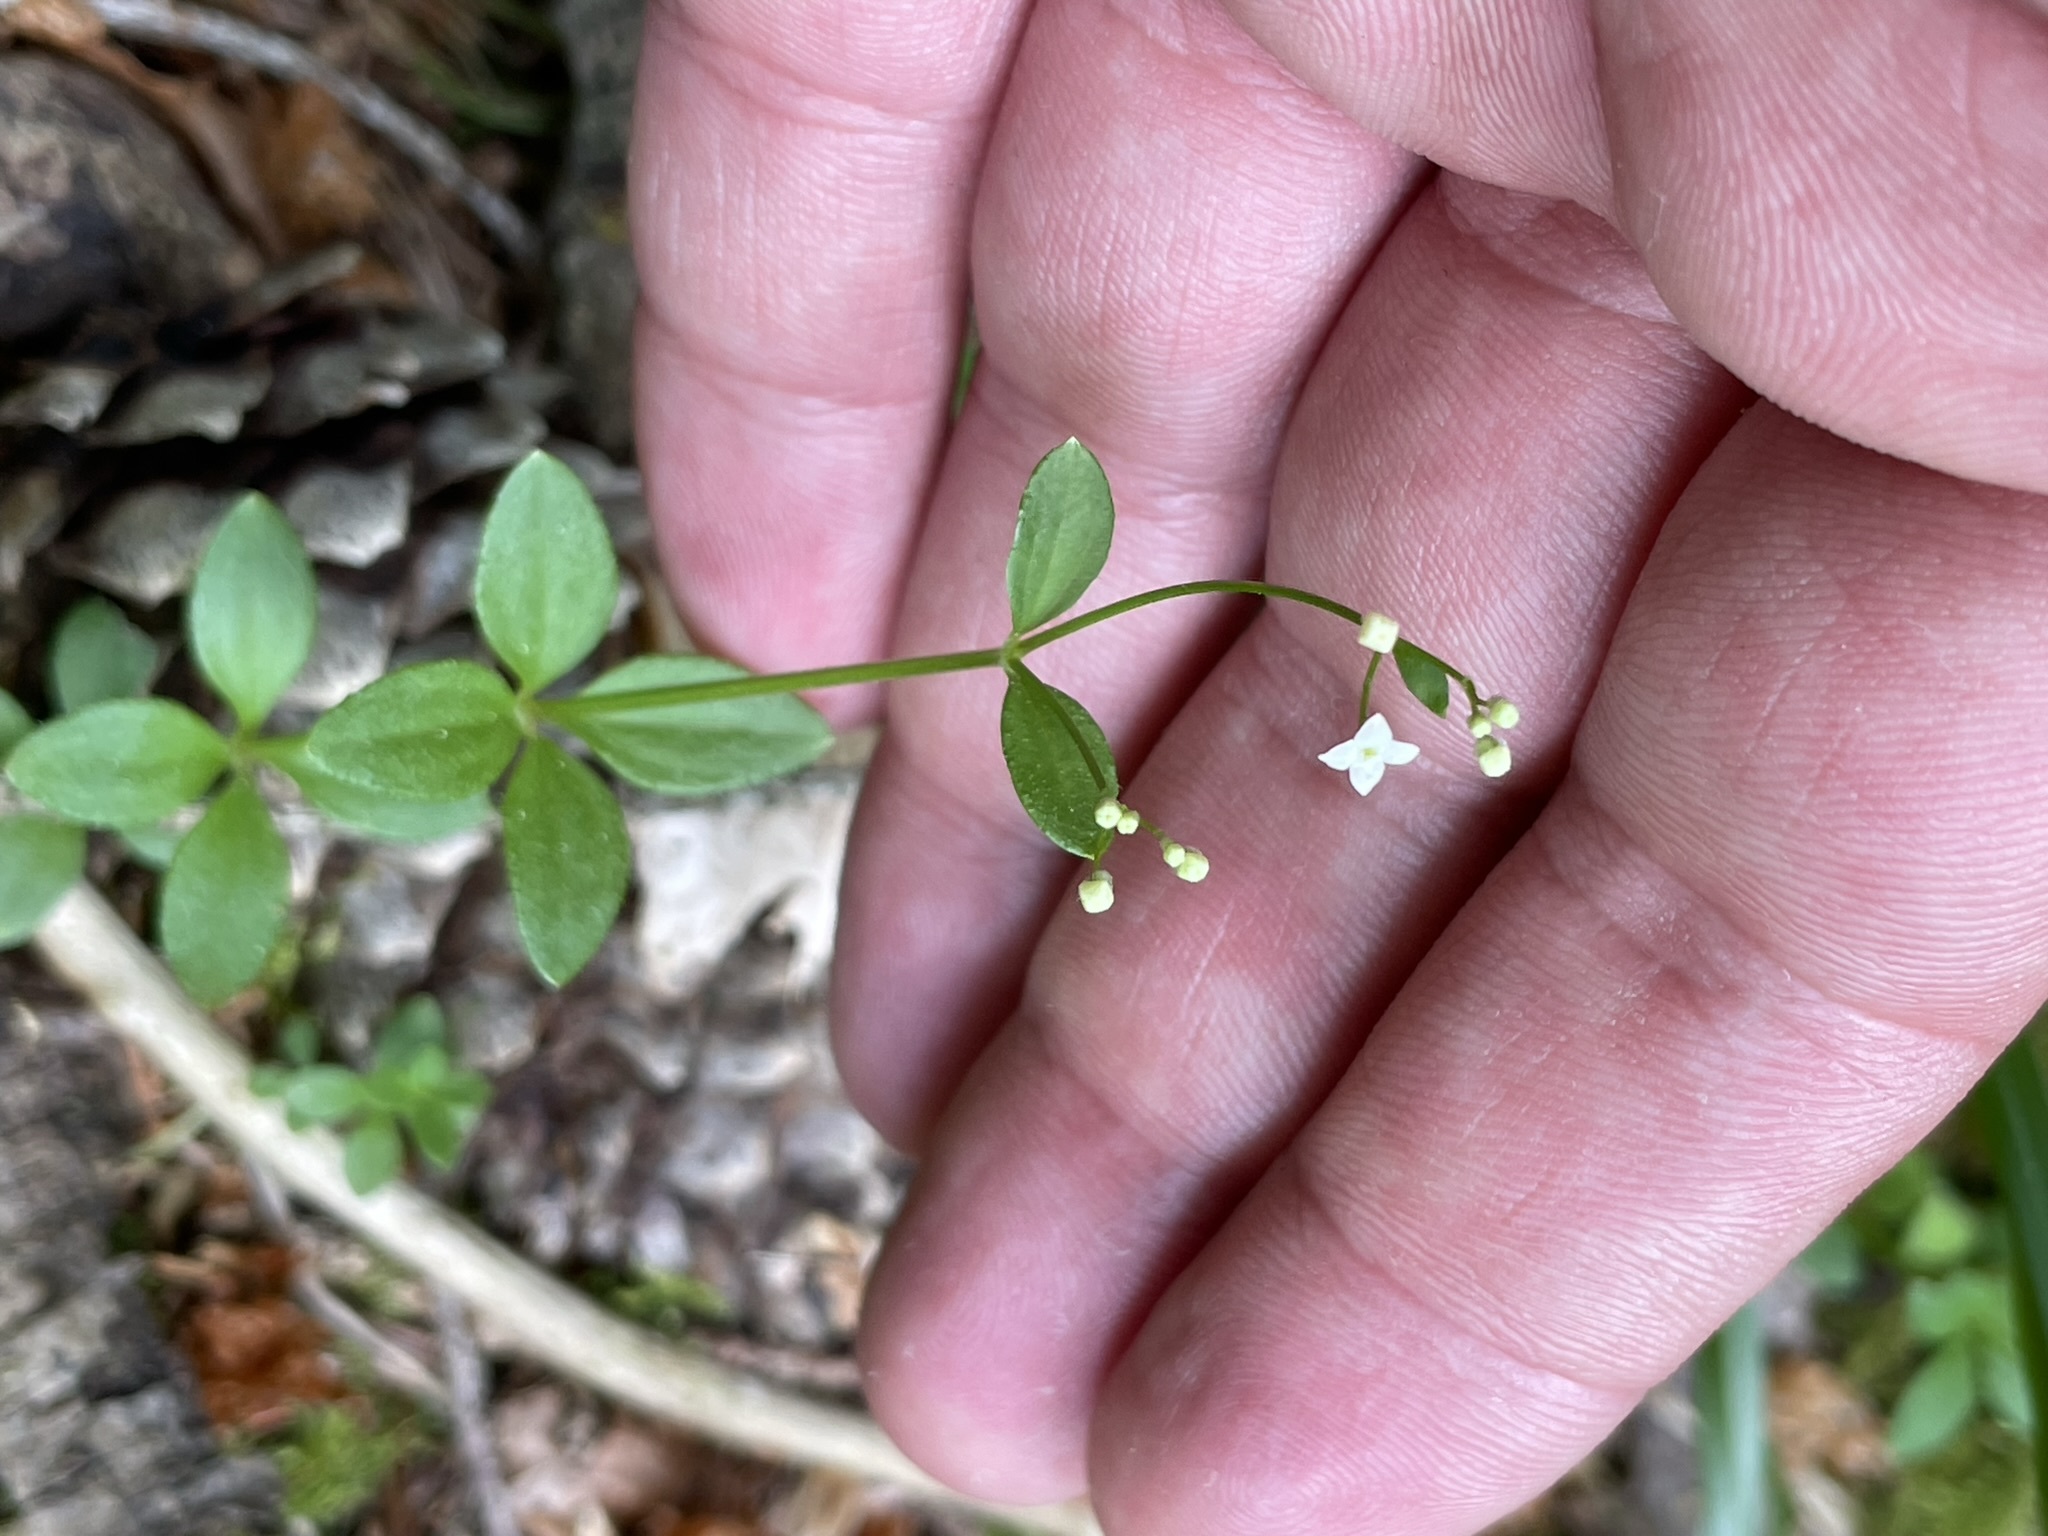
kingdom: Plantae
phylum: Tracheophyta
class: Magnoliopsida
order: Gentianales
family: Rubiaceae
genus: Galium
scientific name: Galium rotundifolium
